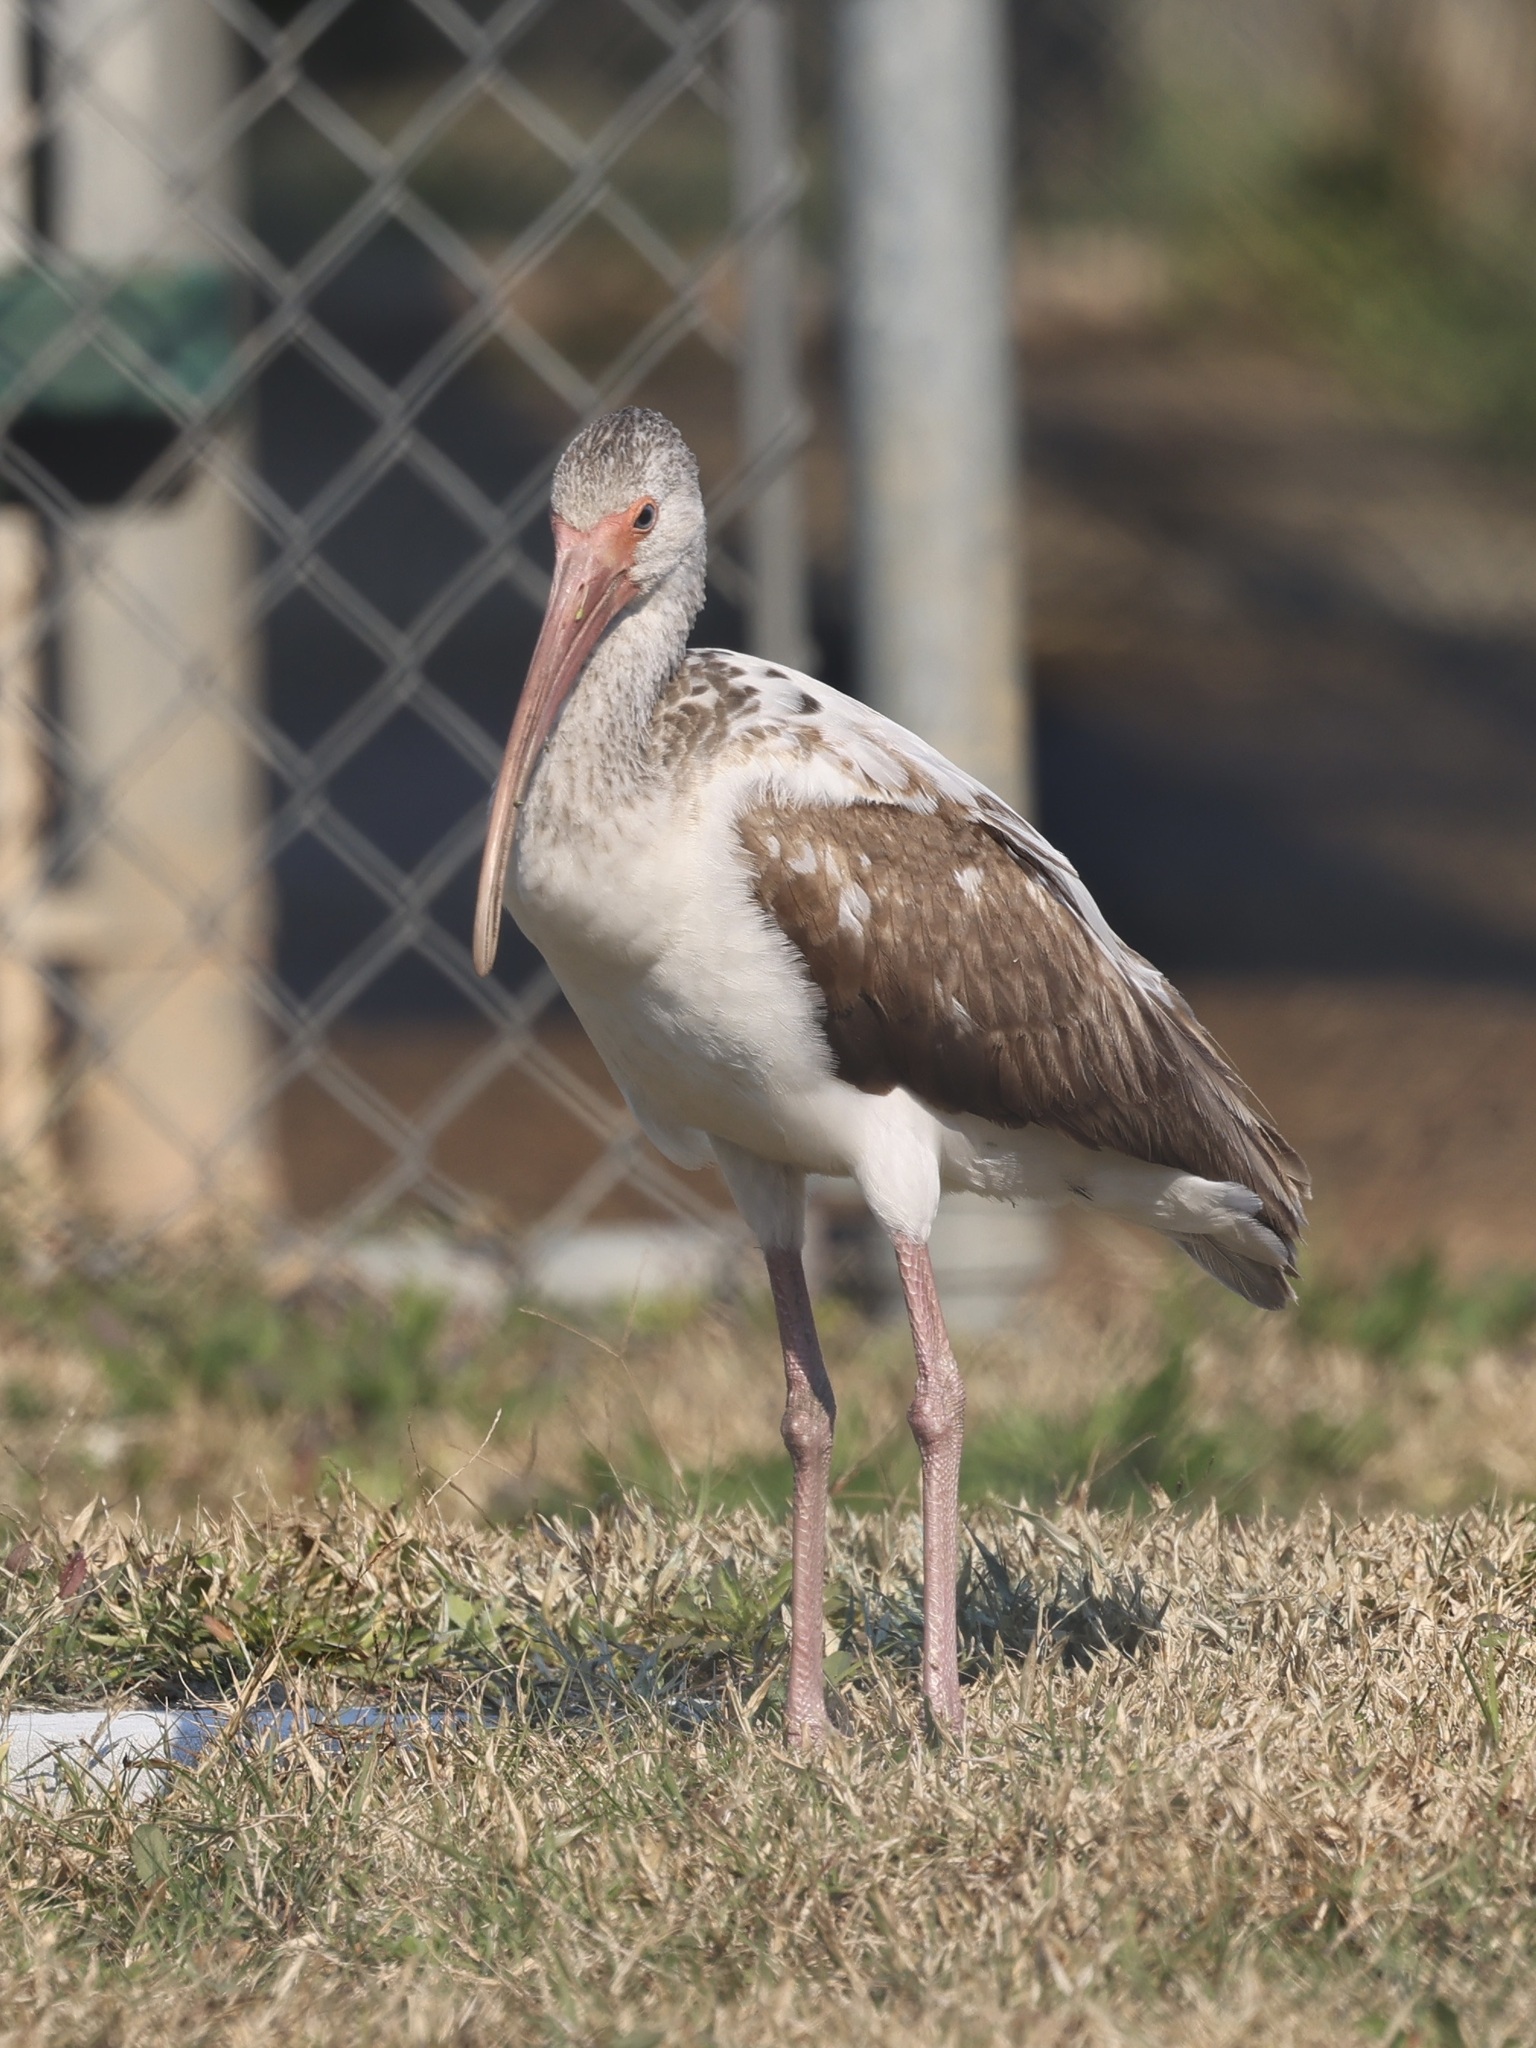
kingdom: Animalia
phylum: Chordata
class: Aves
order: Pelecaniformes
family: Threskiornithidae
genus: Eudocimus
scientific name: Eudocimus albus
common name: White ibis
